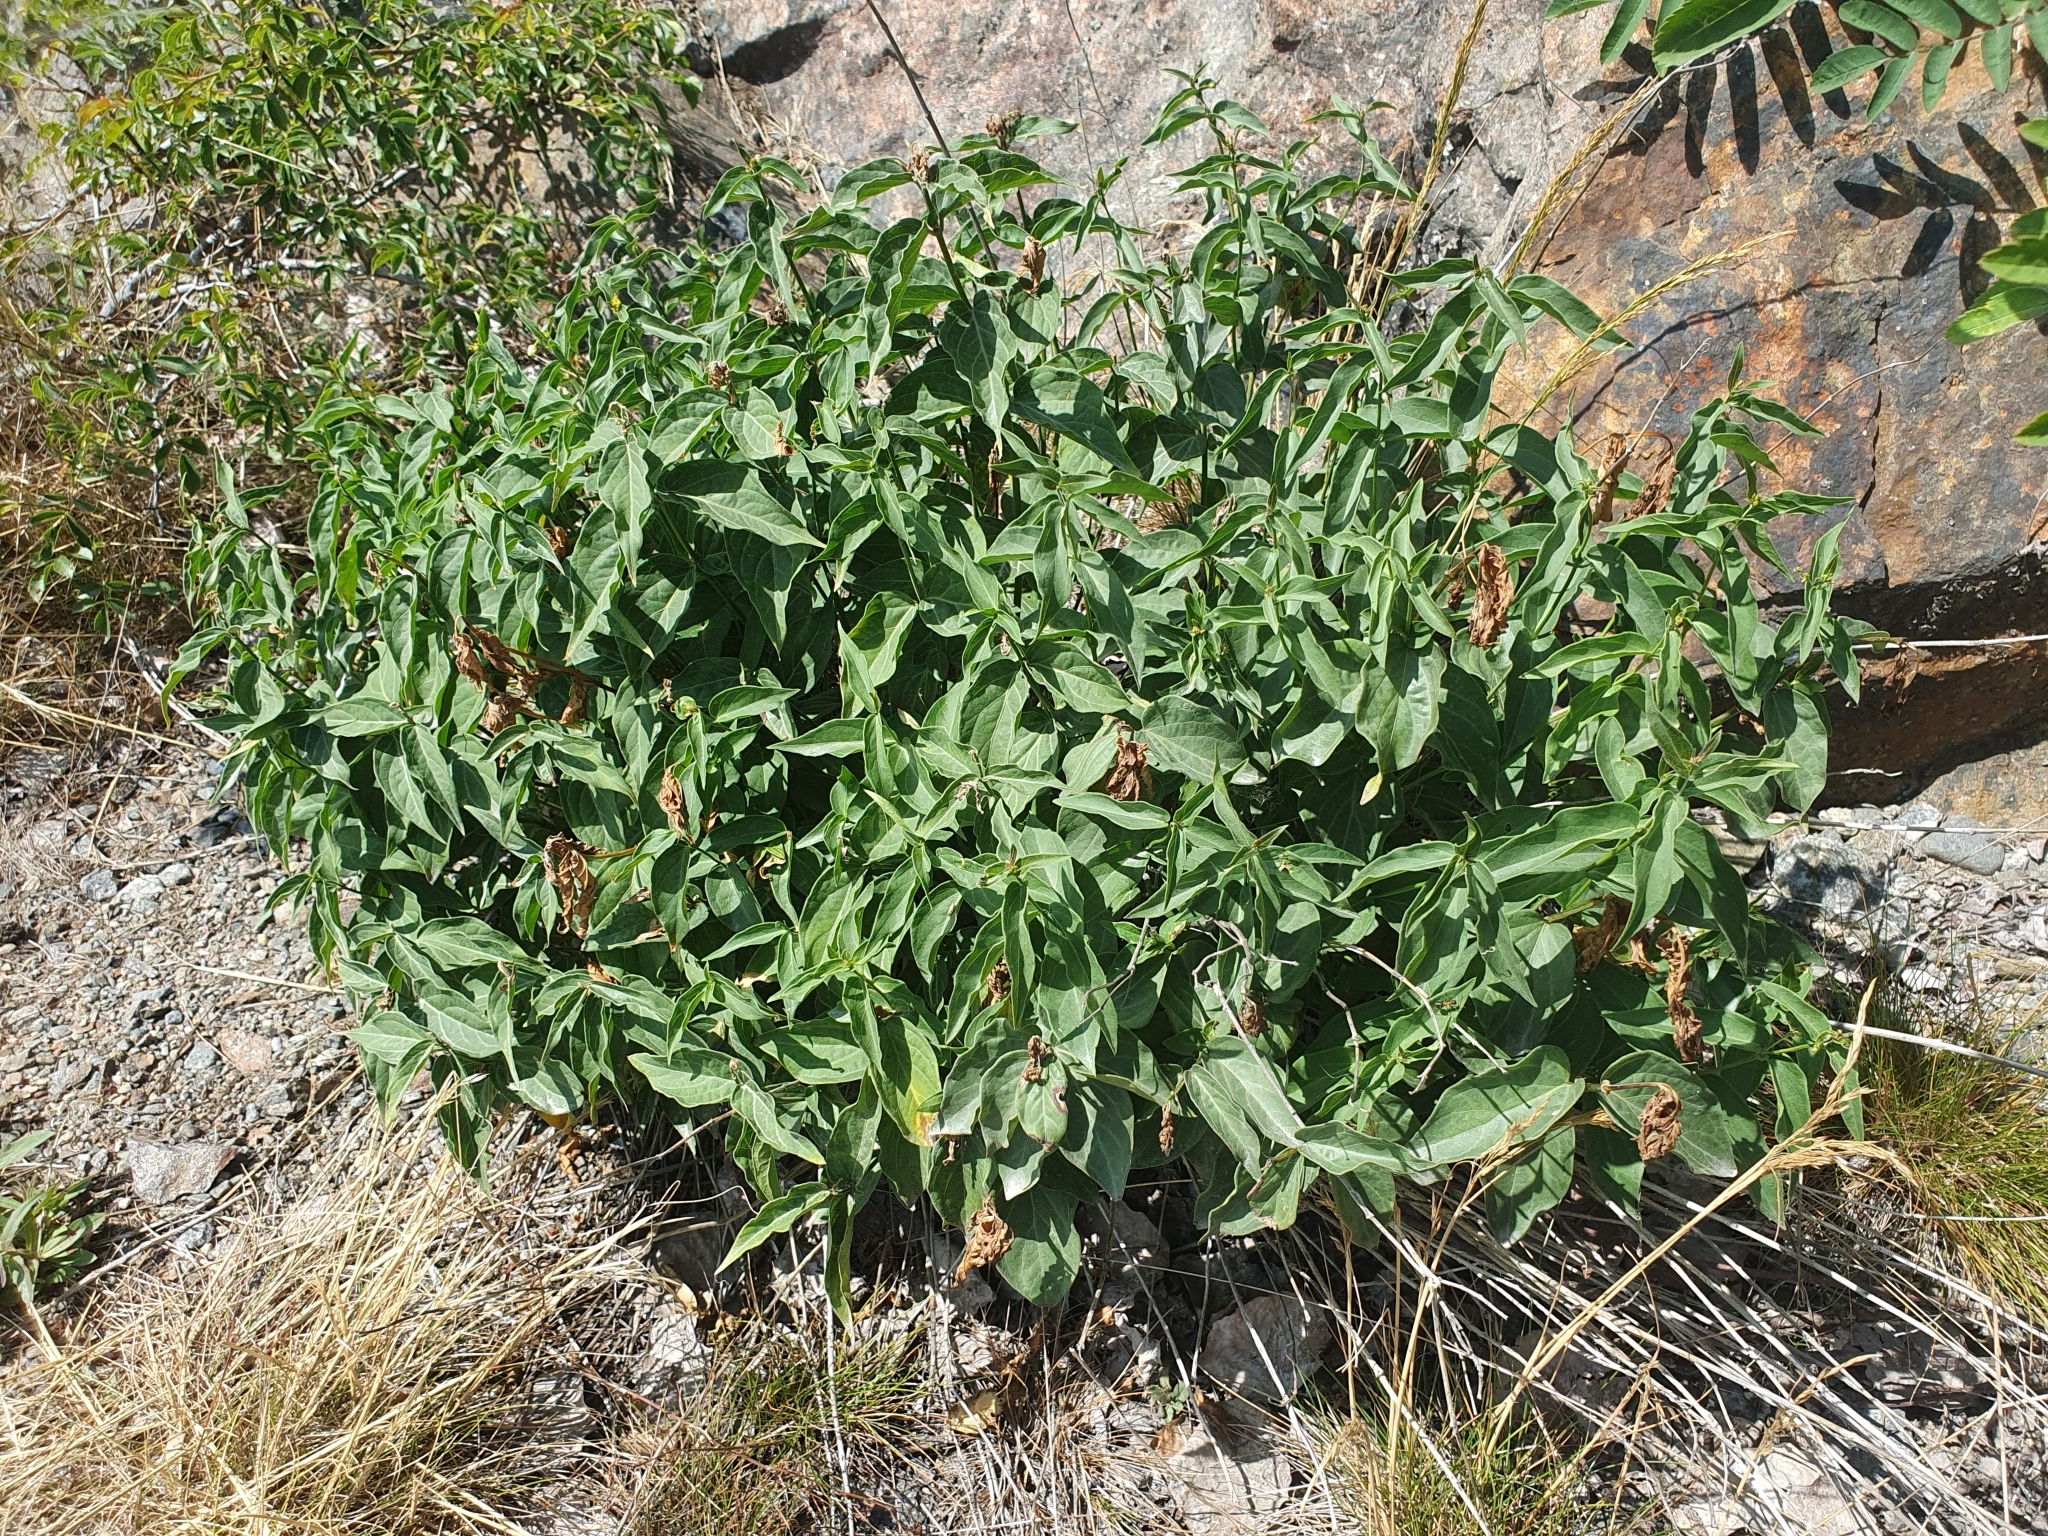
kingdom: Plantae
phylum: Tracheophyta
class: Magnoliopsida
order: Gentianales
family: Apocynaceae
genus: Vincetoxicum
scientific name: Vincetoxicum hirundinaria
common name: White swallowwort
